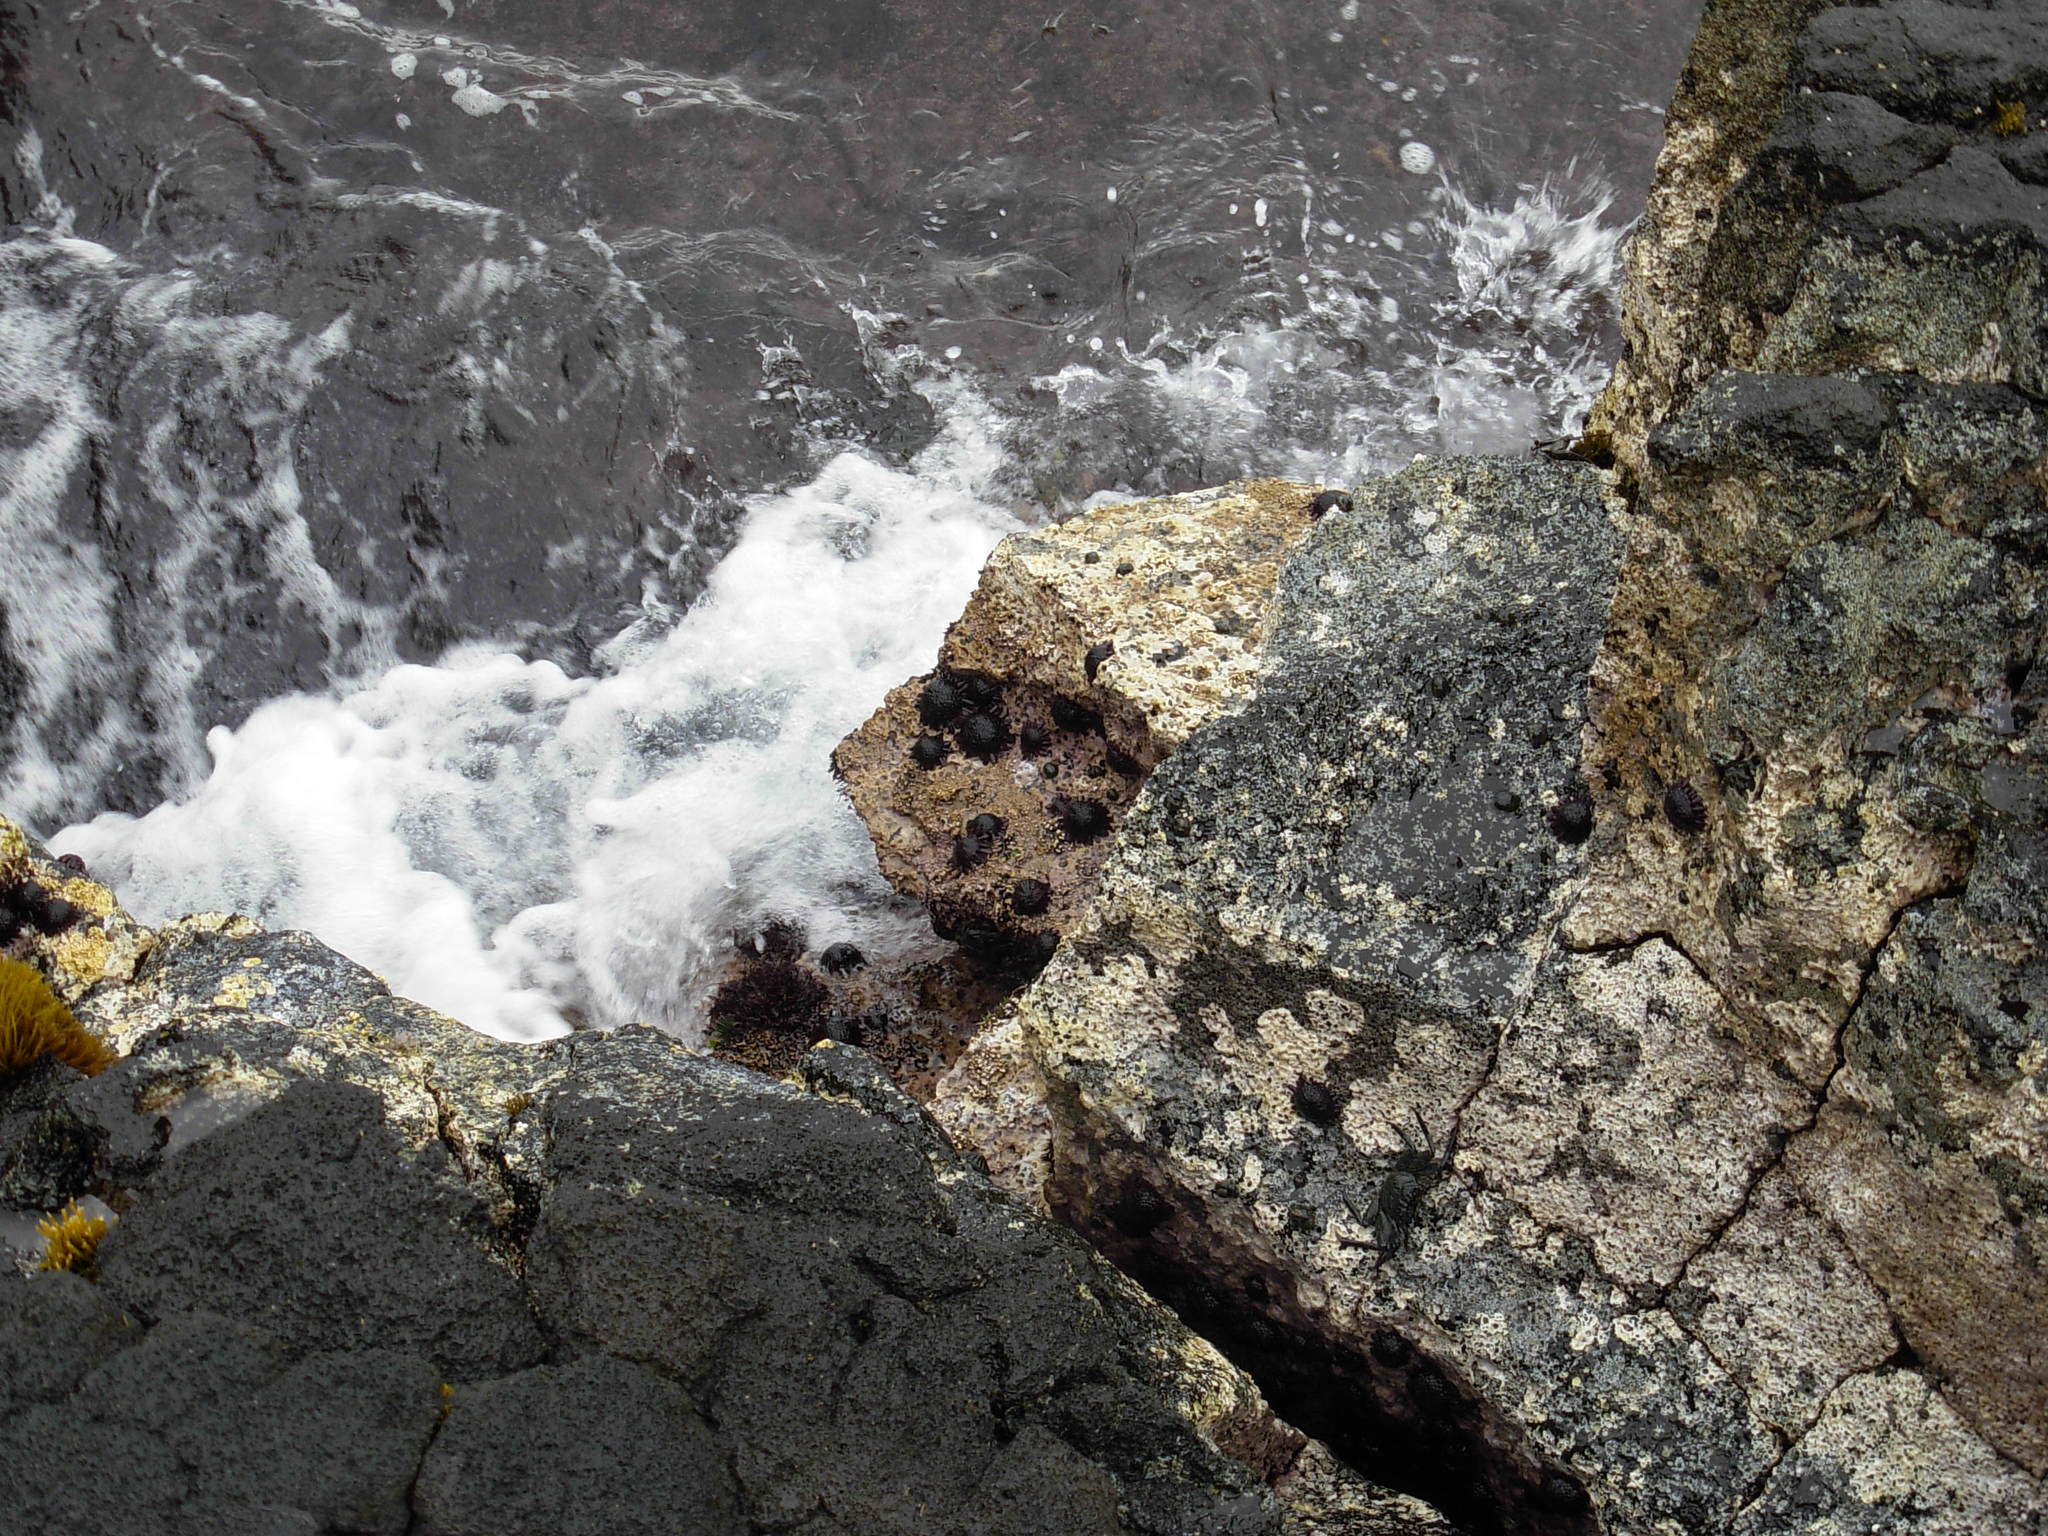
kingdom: Animalia
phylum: Echinodermata
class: Echinoidea
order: Camarodonta
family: Echinometridae
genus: Colobocentrotus
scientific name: Colobocentrotus atratus
